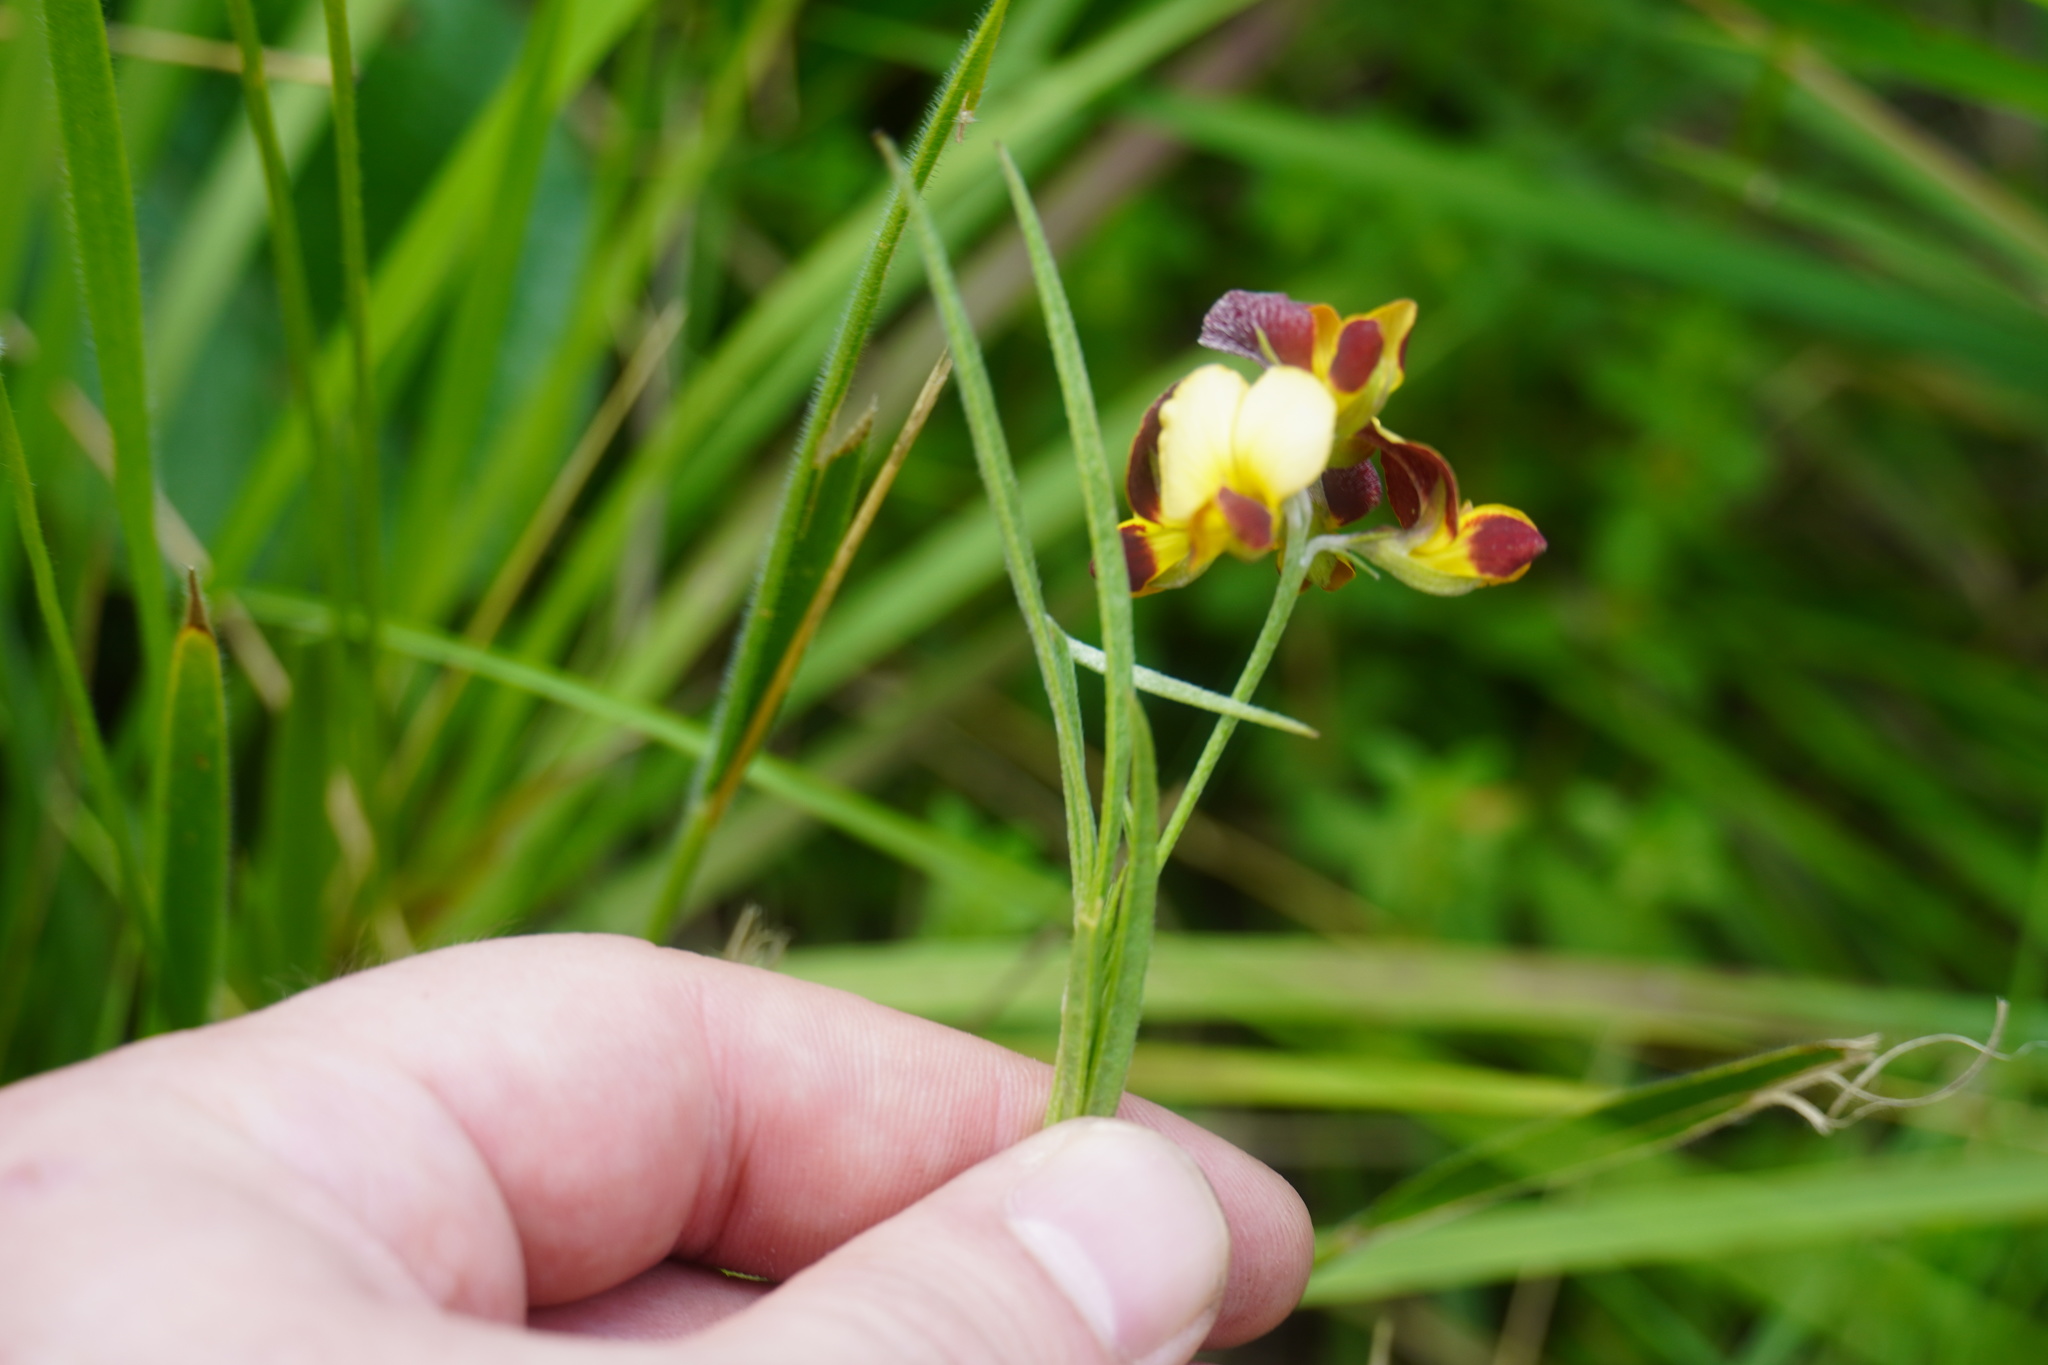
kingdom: Plantae
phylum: Tracheophyta
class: Magnoliopsida
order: Fabales
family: Fabaceae
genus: Argyrolobium
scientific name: Argyrolobium tuberosum
